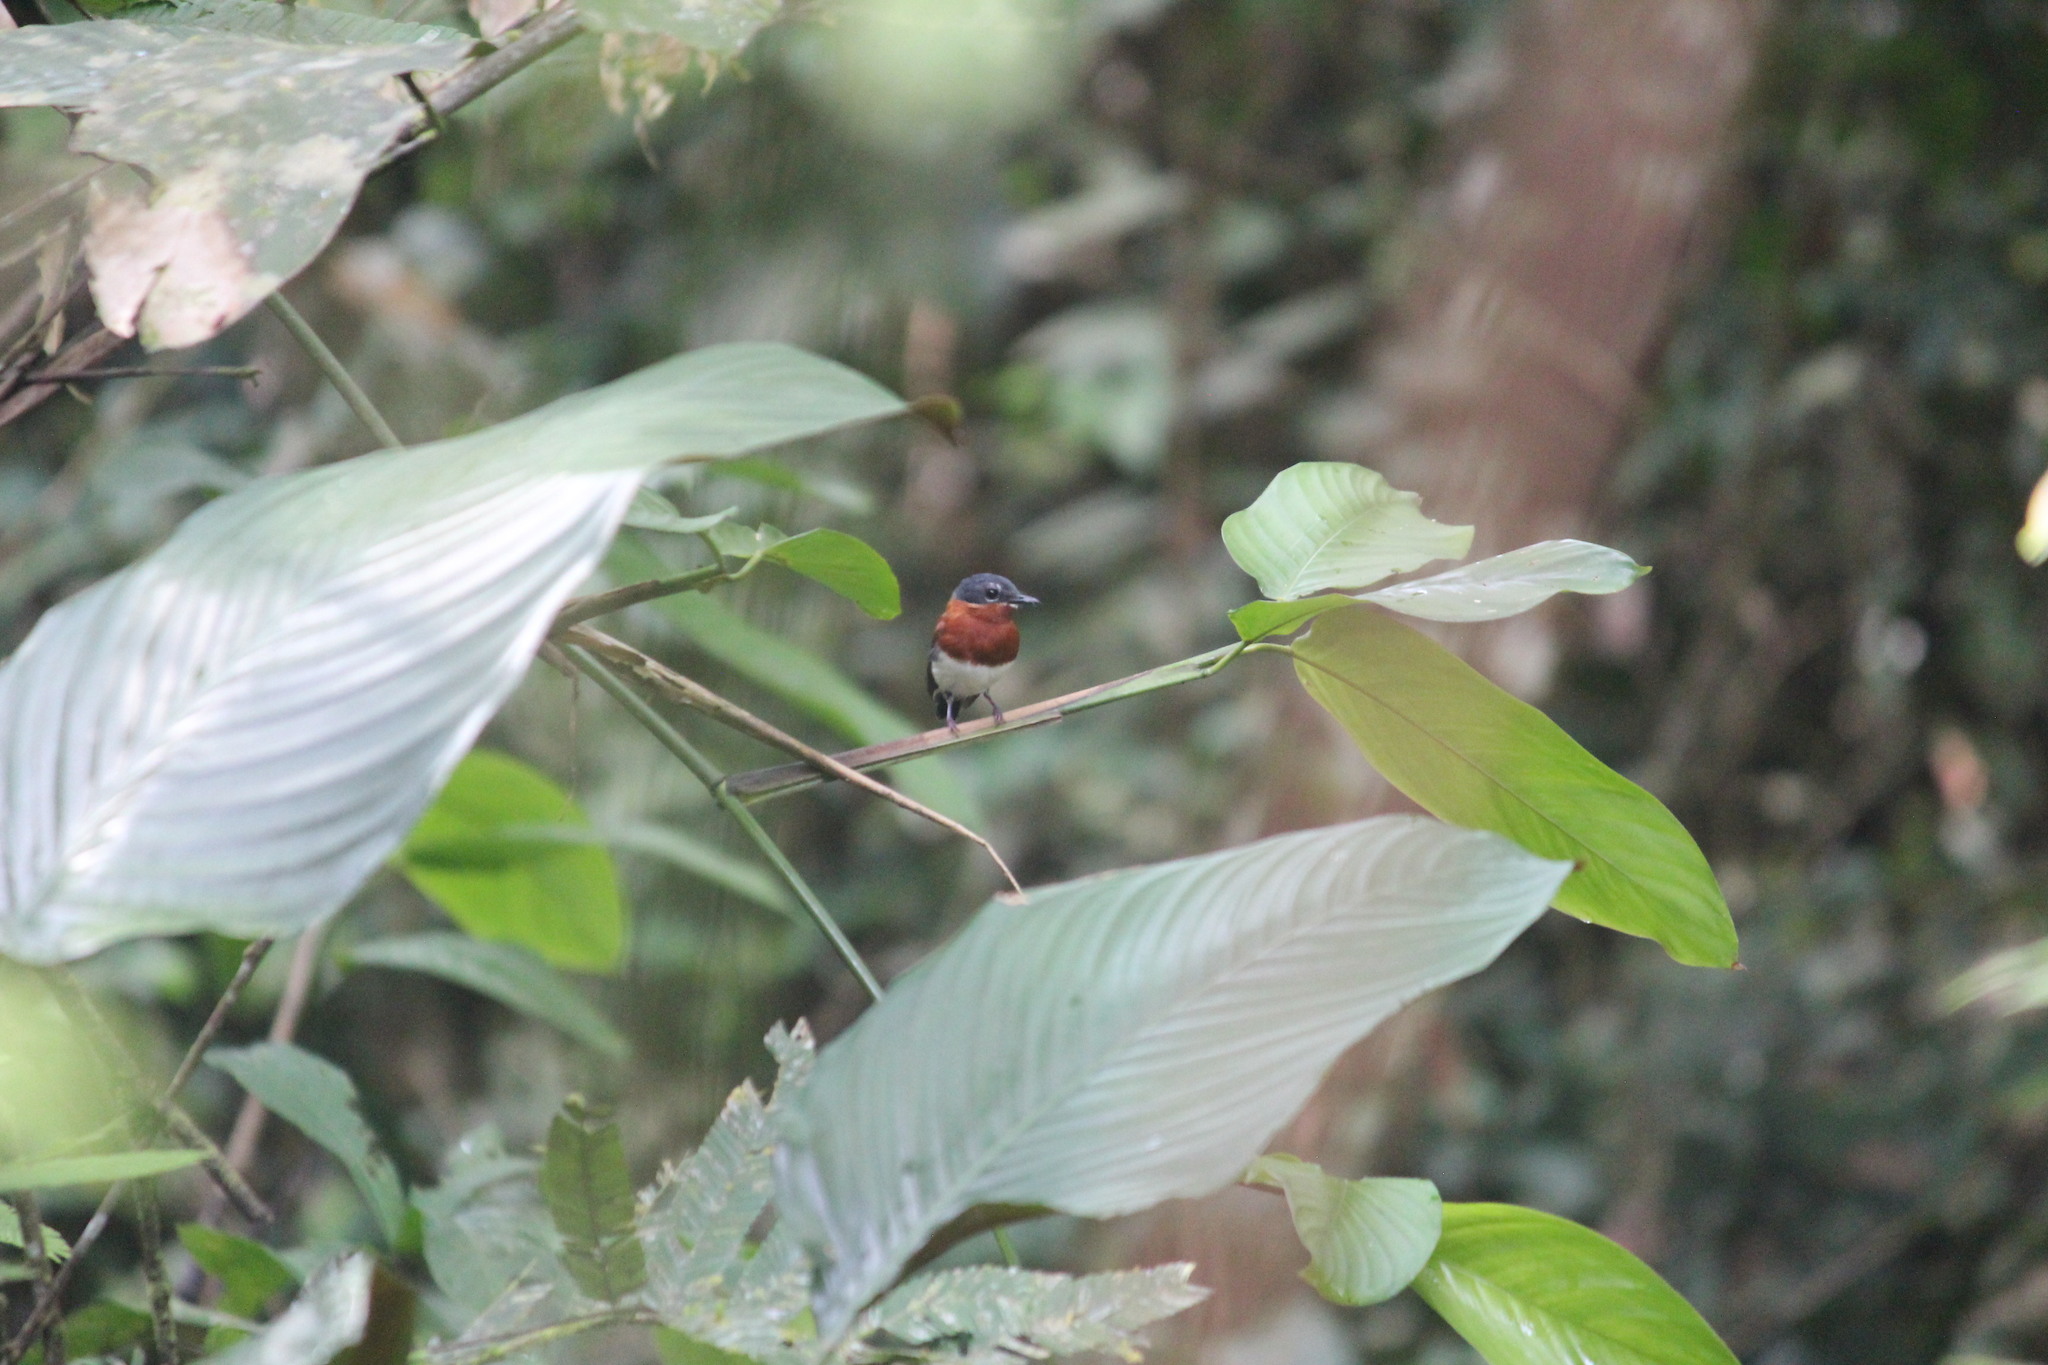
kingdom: Animalia
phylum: Chordata
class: Aves
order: Passeriformes
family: Platysteiridae
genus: Platysteira
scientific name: Platysteira castanea
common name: Chestnut wattle-eye
